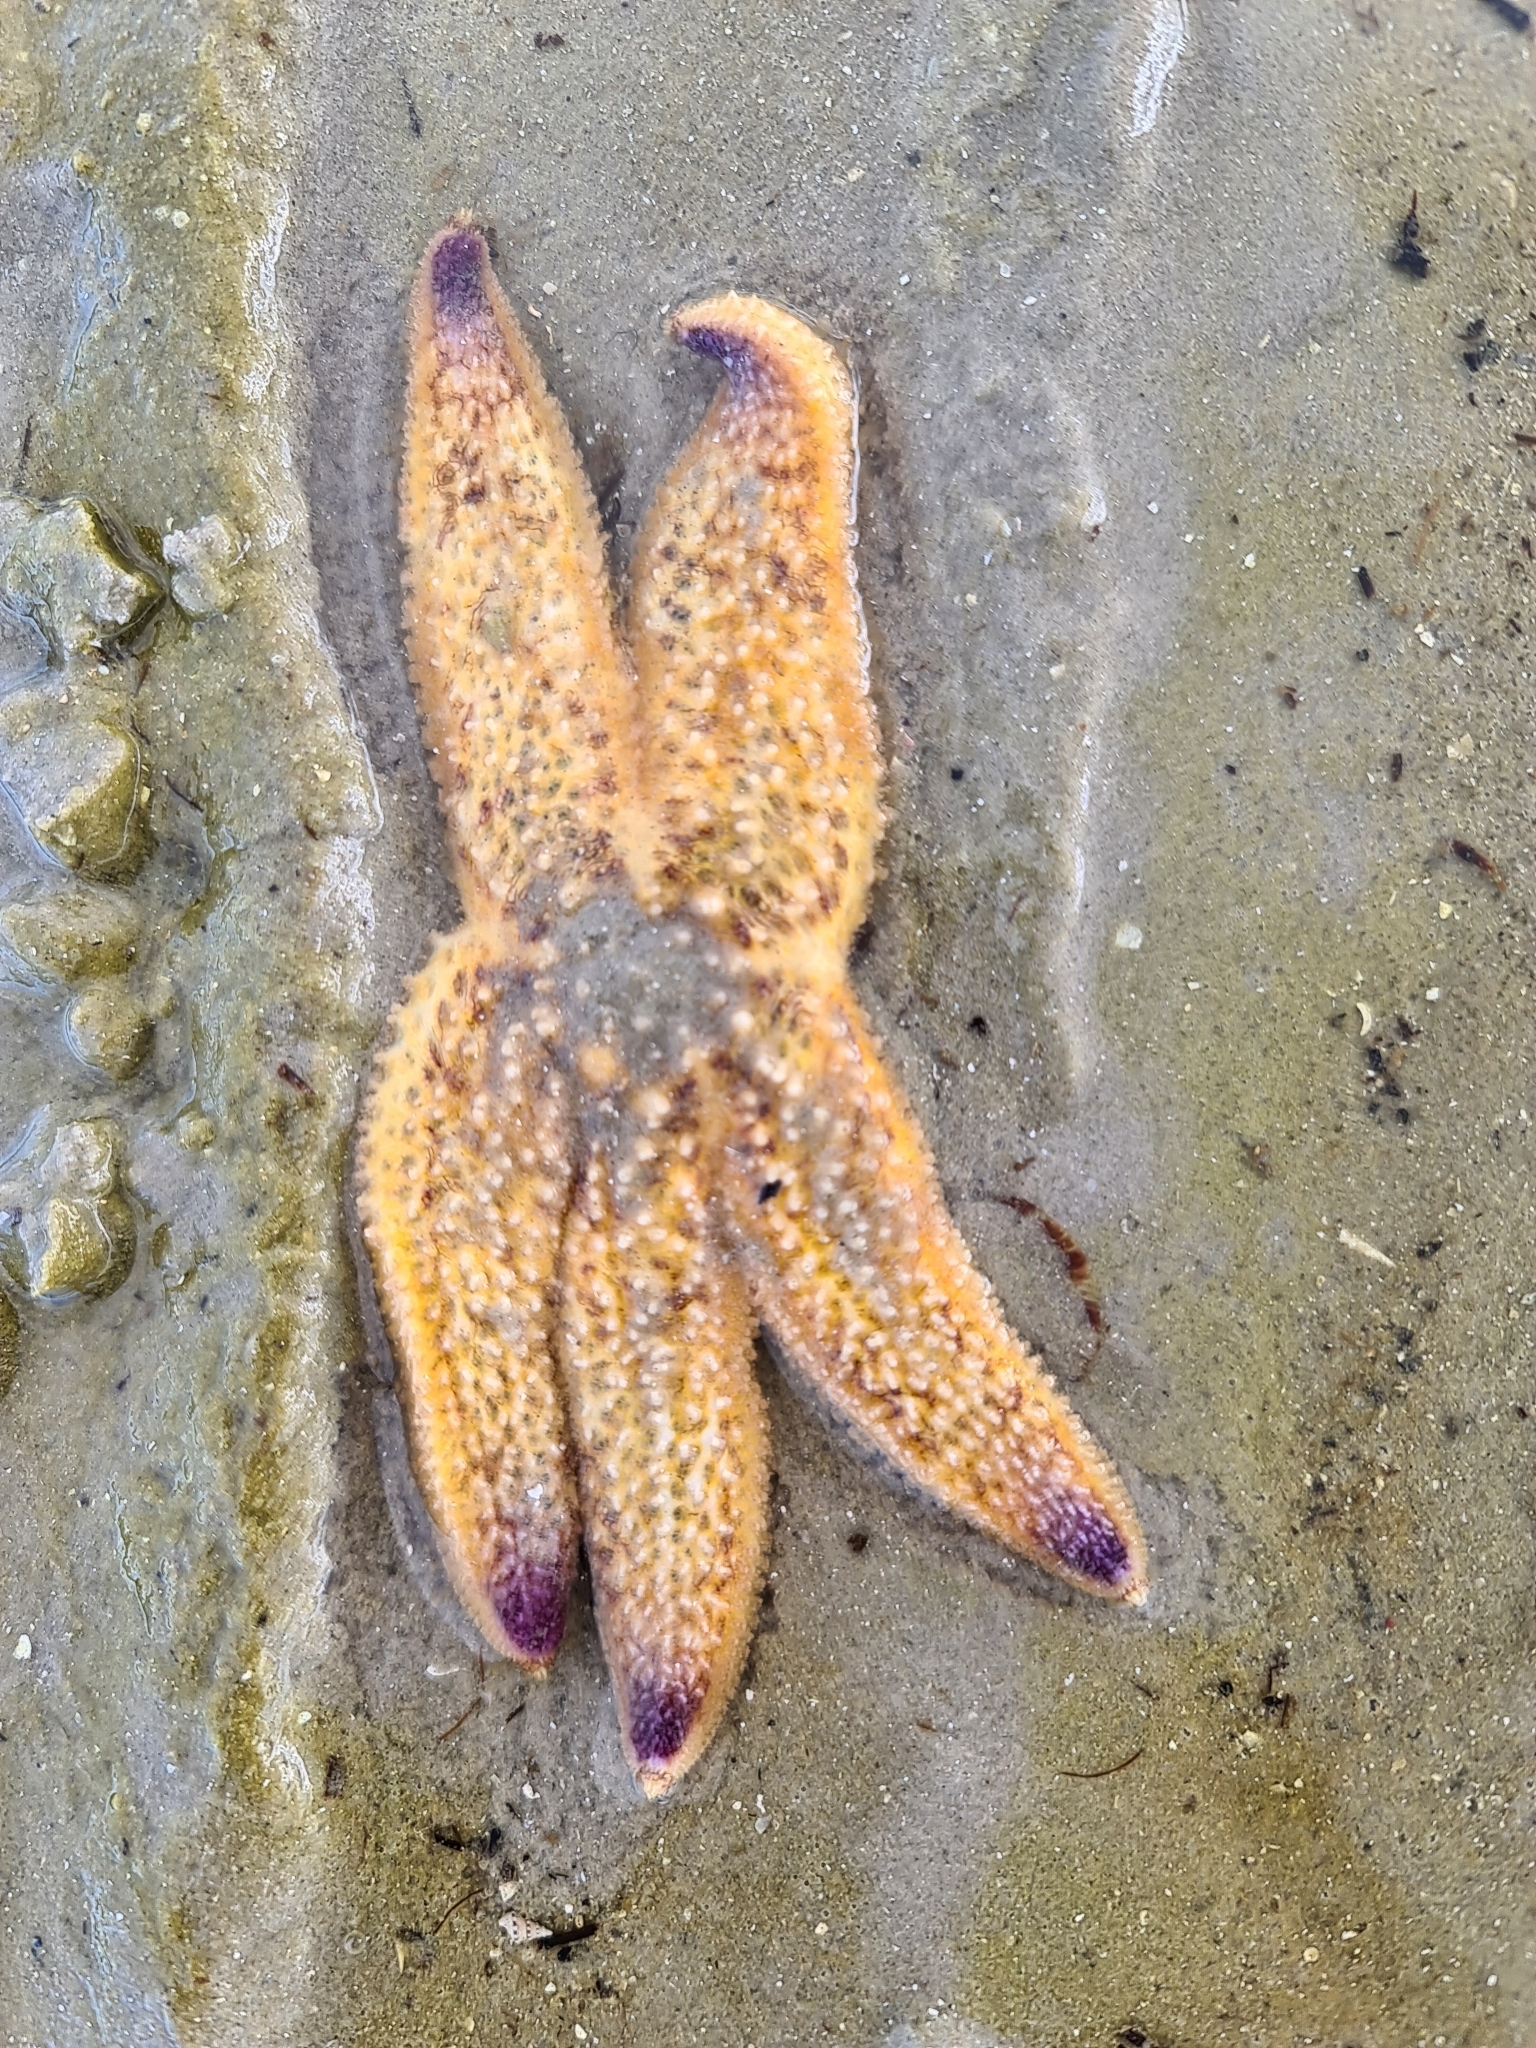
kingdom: Animalia
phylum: Echinodermata
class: Asteroidea
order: Forcipulatida
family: Asteriidae
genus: Asterias
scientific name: Asterias amurensis
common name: Flat-bottomed star
